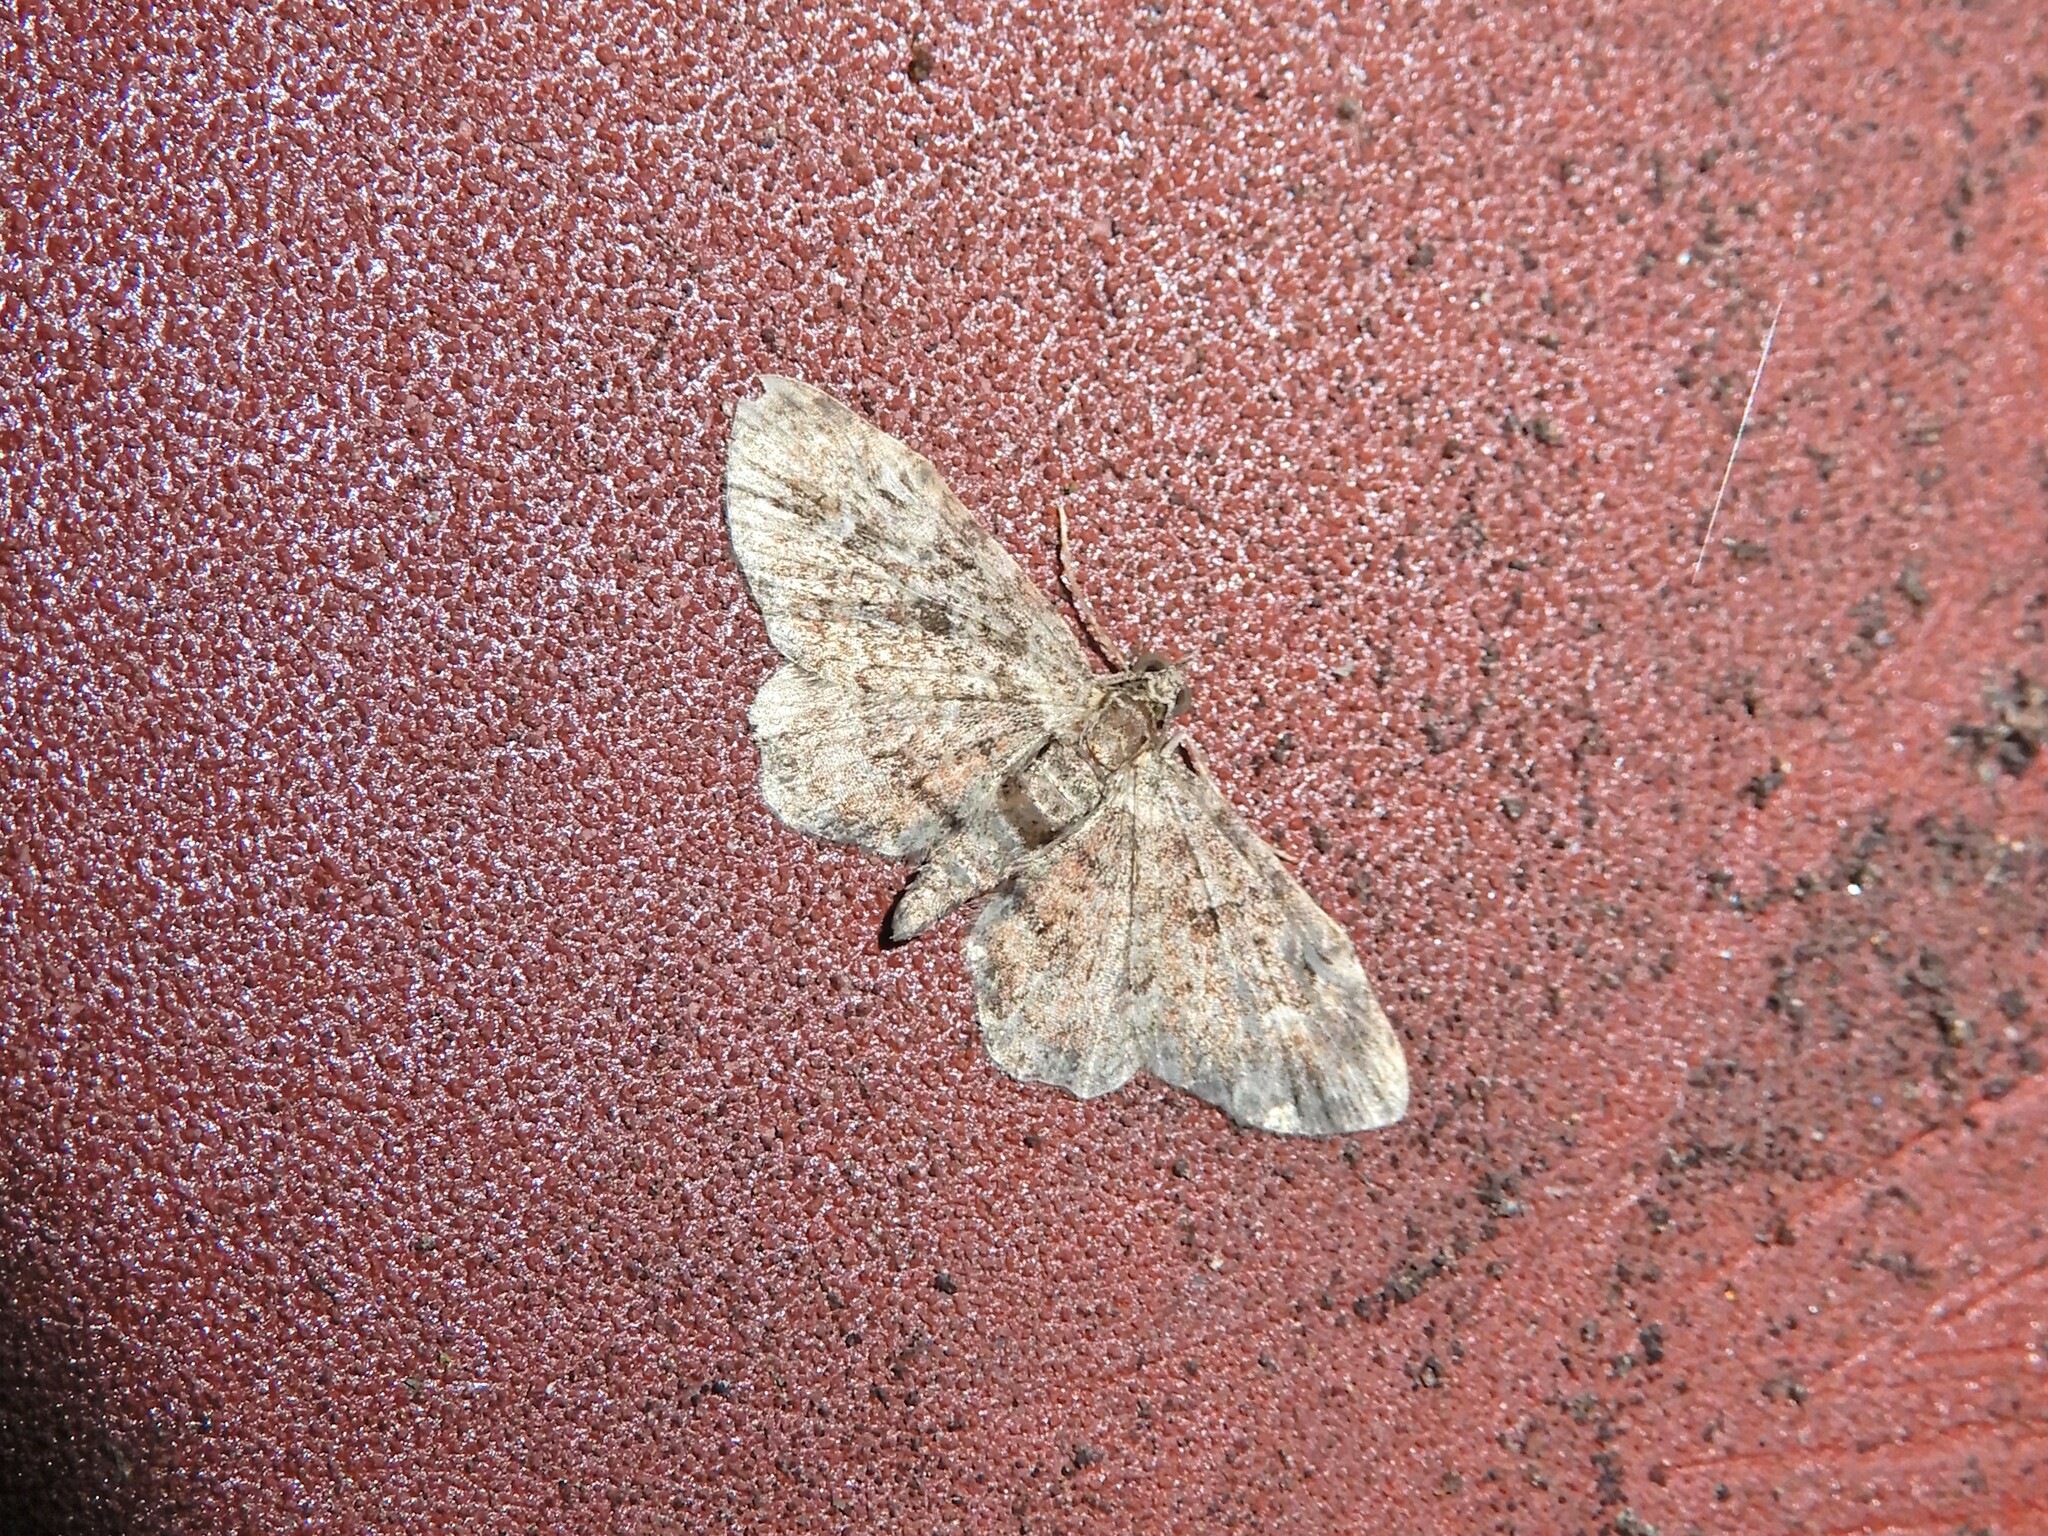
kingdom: Animalia
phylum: Arthropoda
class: Insecta
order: Lepidoptera
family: Geometridae
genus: Pasiphilodes
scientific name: Pasiphilodes testulata
